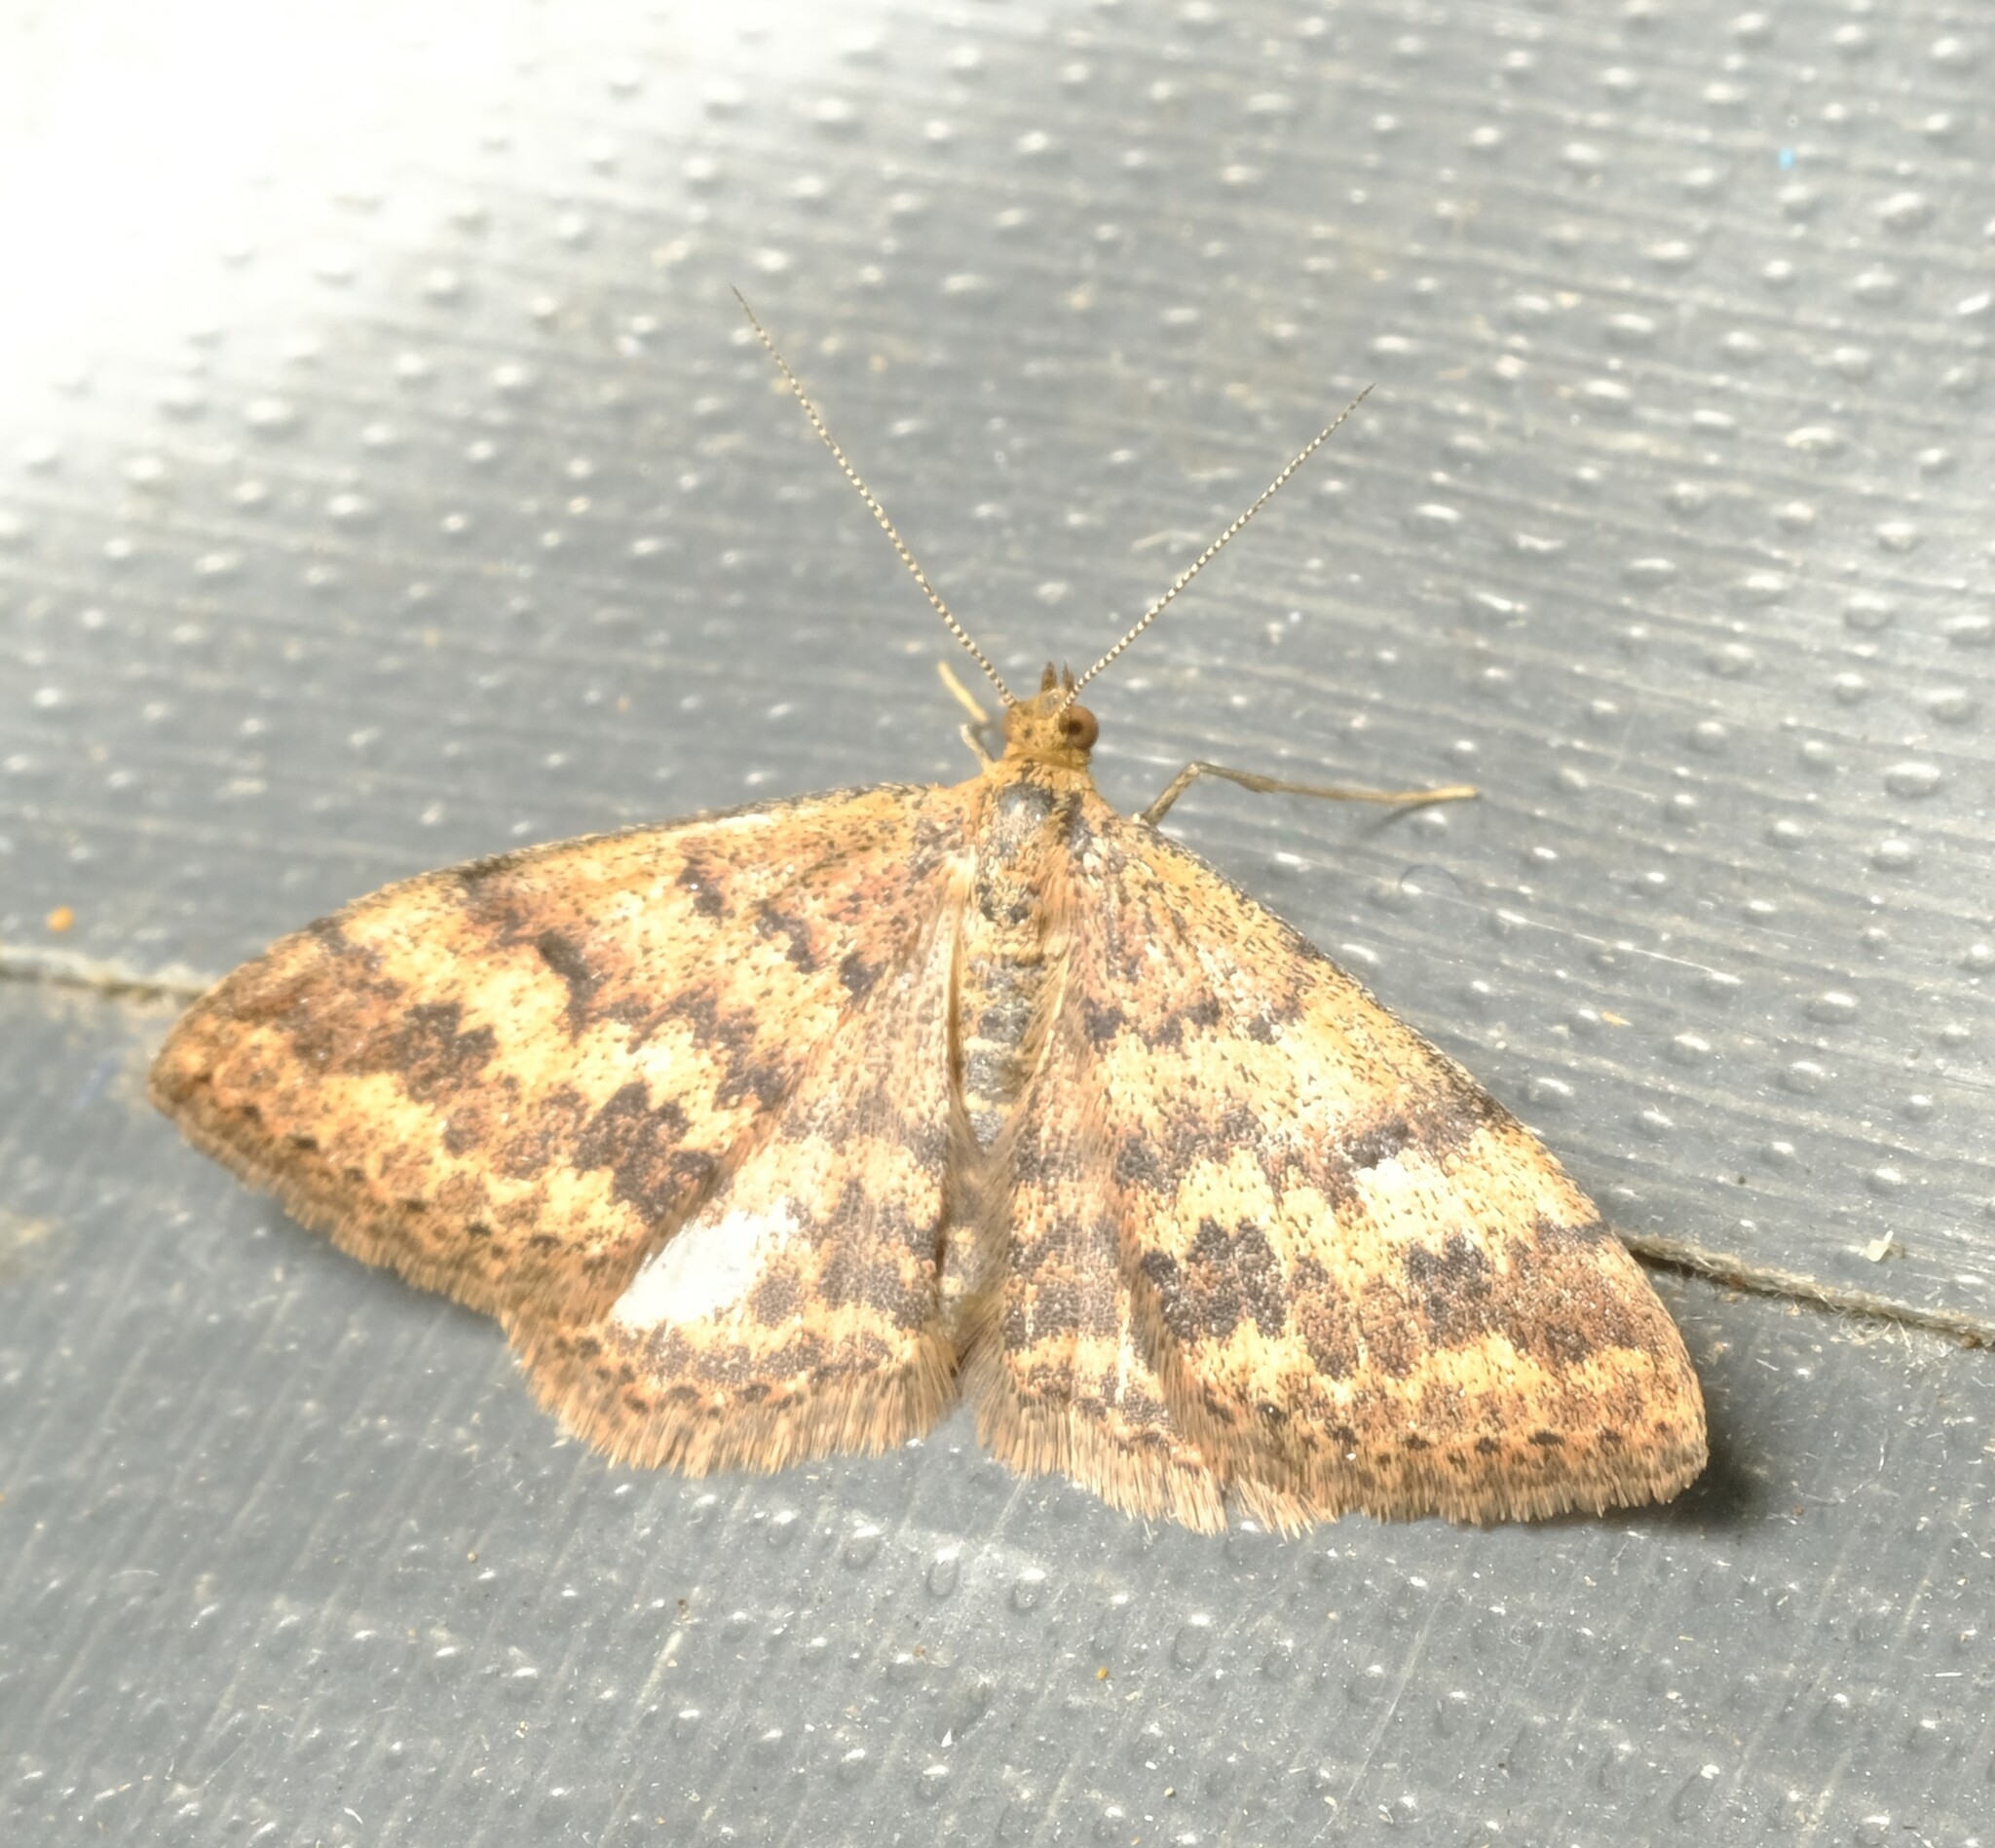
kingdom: Animalia
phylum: Arthropoda
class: Insecta
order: Lepidoptera
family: Geometridae
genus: Scopula
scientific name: Scopula rubraria
